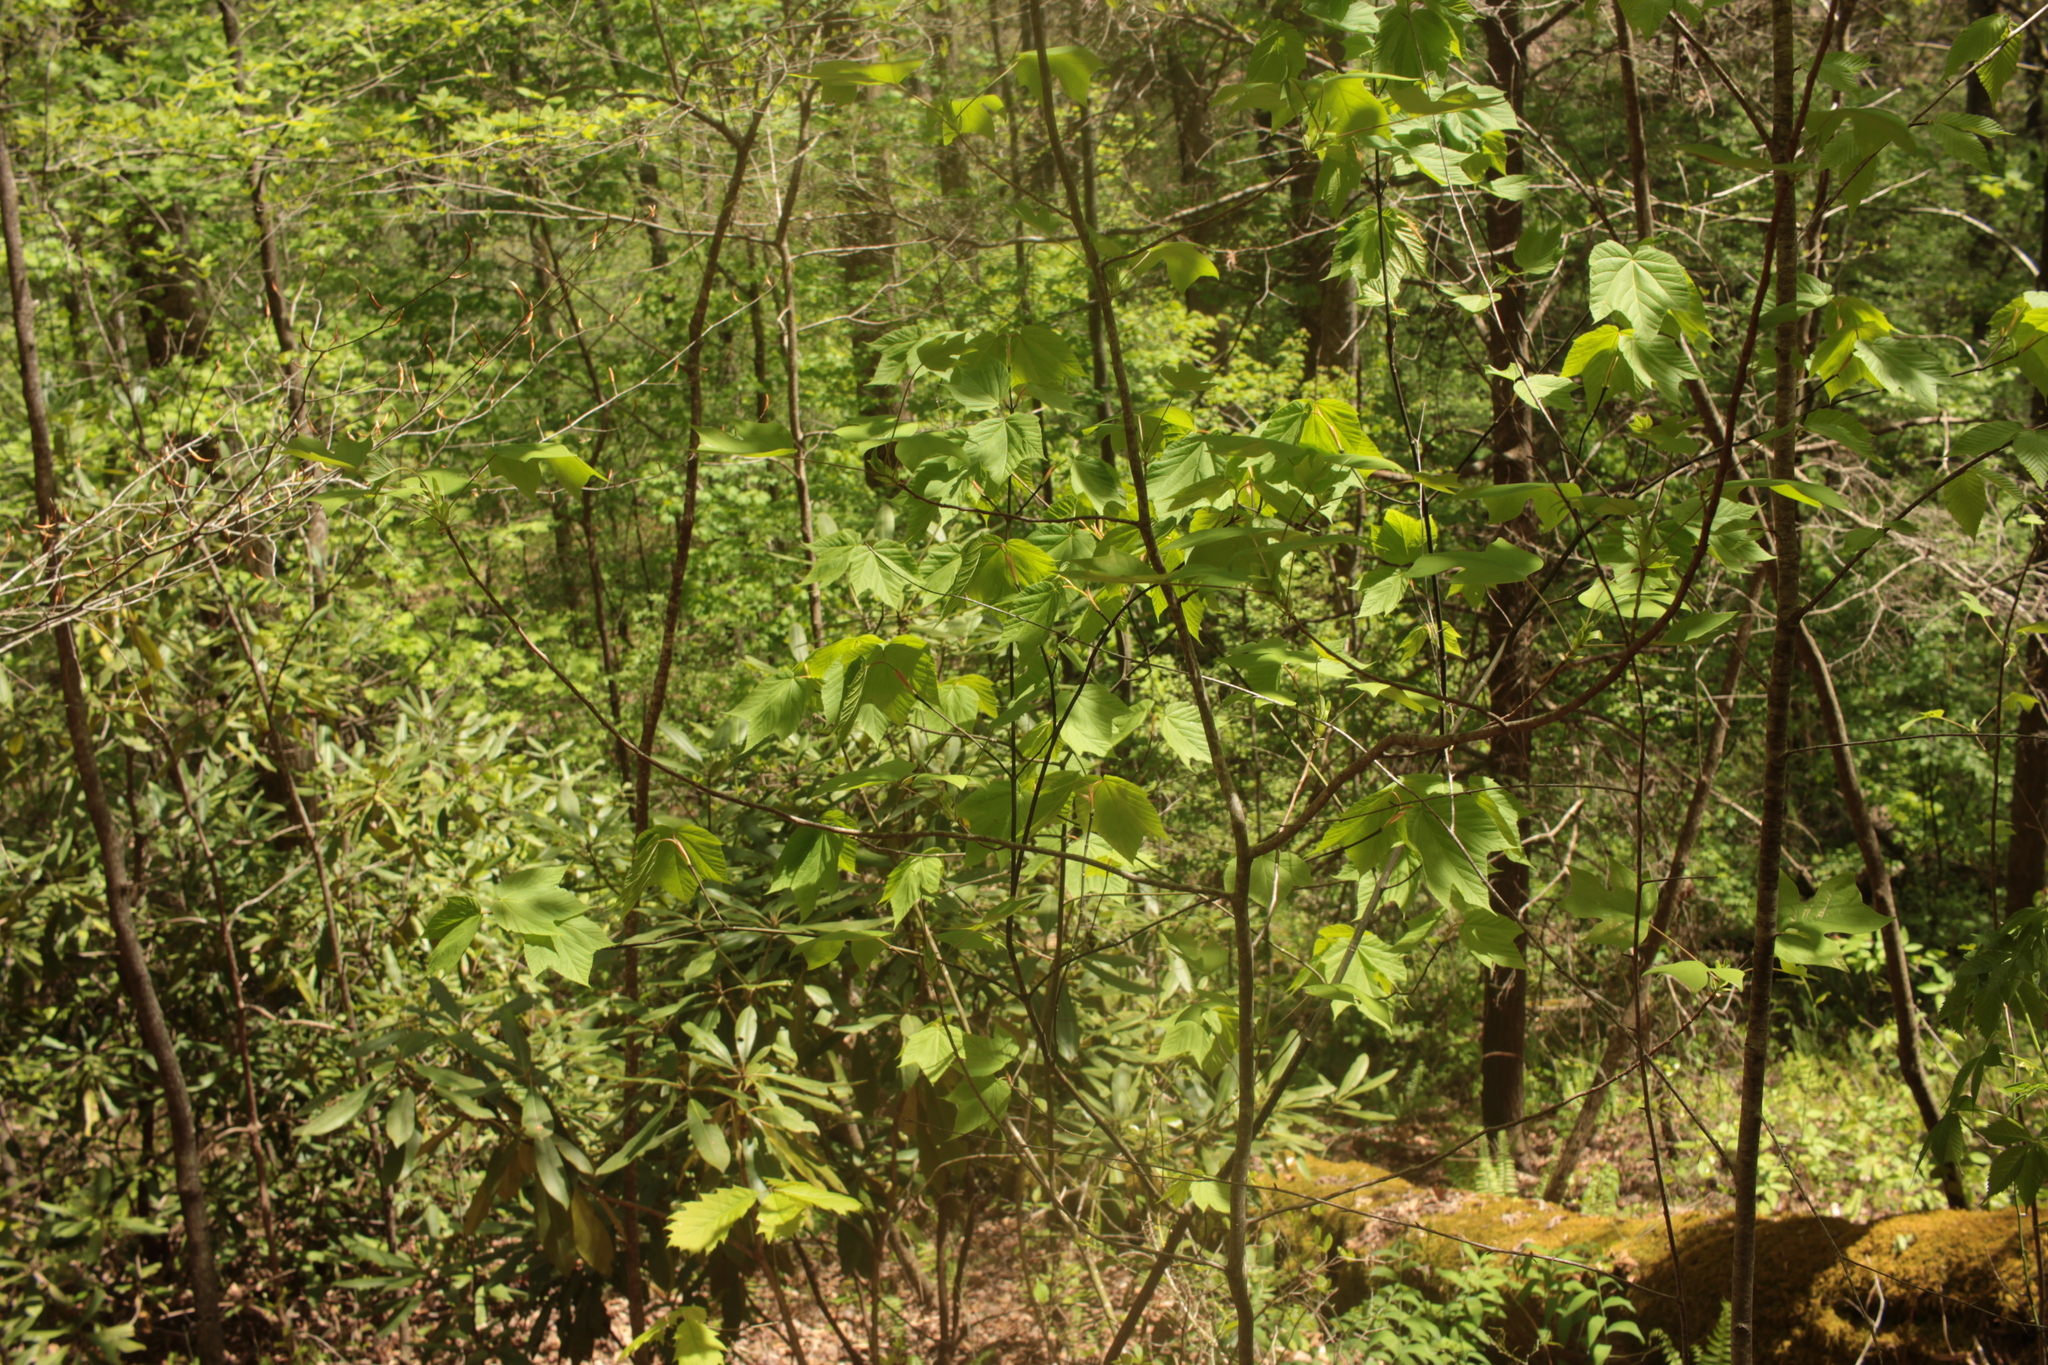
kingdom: Plantae
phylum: Tracheophyta
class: Magnoliopsida
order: Sapindales
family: Sapindaceae
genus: Acer
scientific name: Acer pensylvanicum
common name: Moosewood
